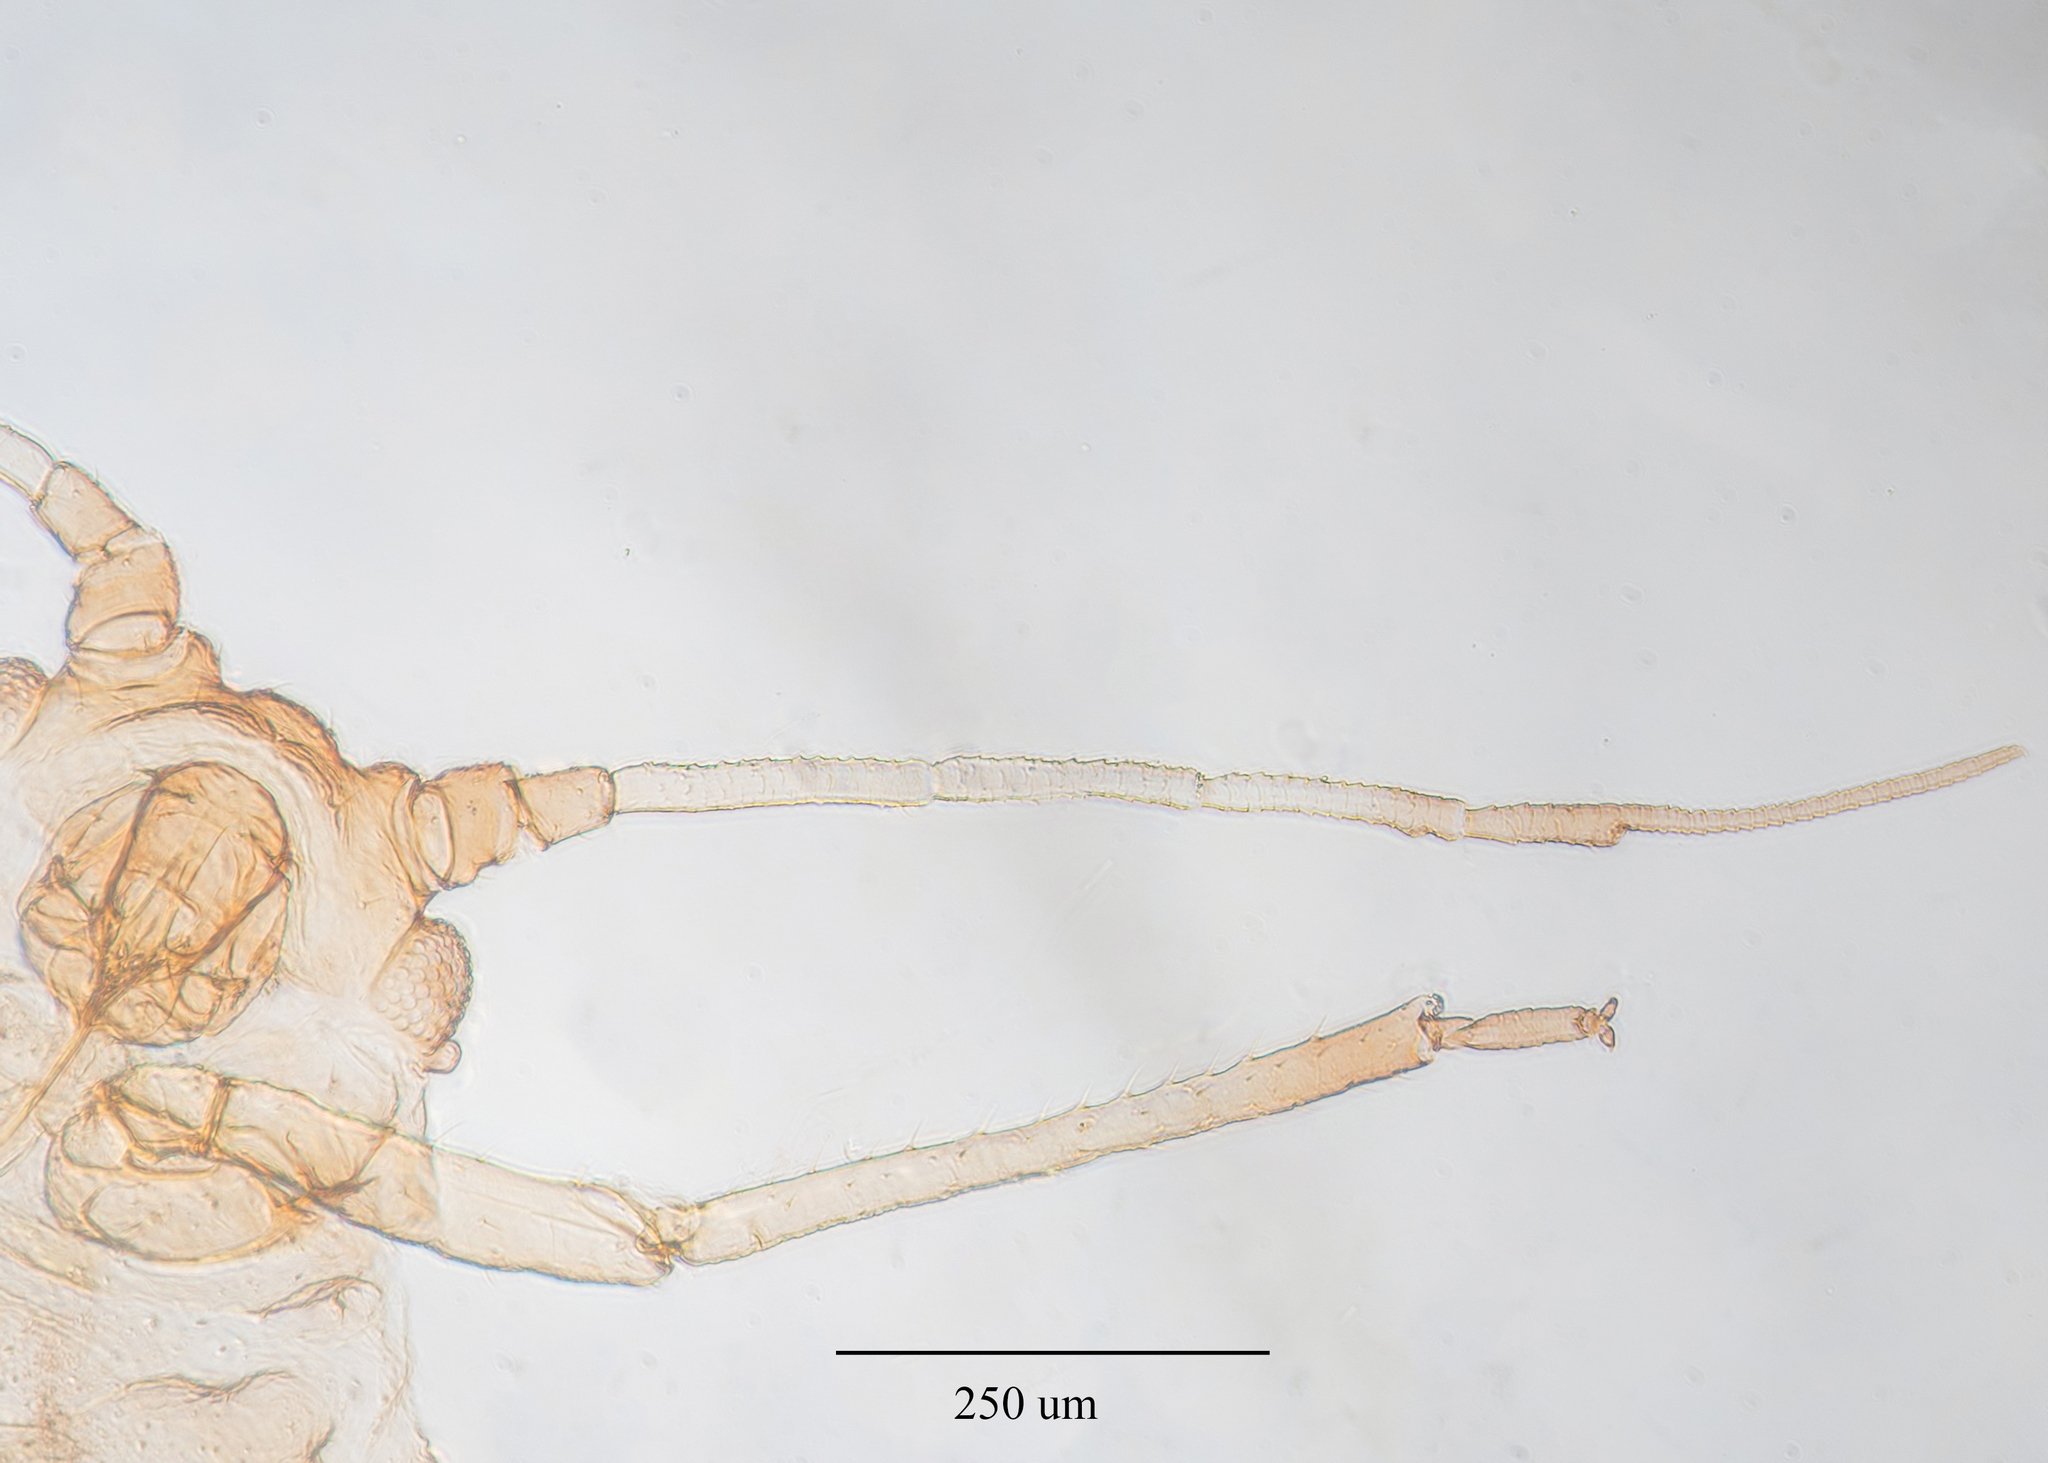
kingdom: Animalia
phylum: Arthropoda
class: Insecta
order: Hemiptera
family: Aphididae
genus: Aphis
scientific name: Aphis gossypii
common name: Melon aphid
